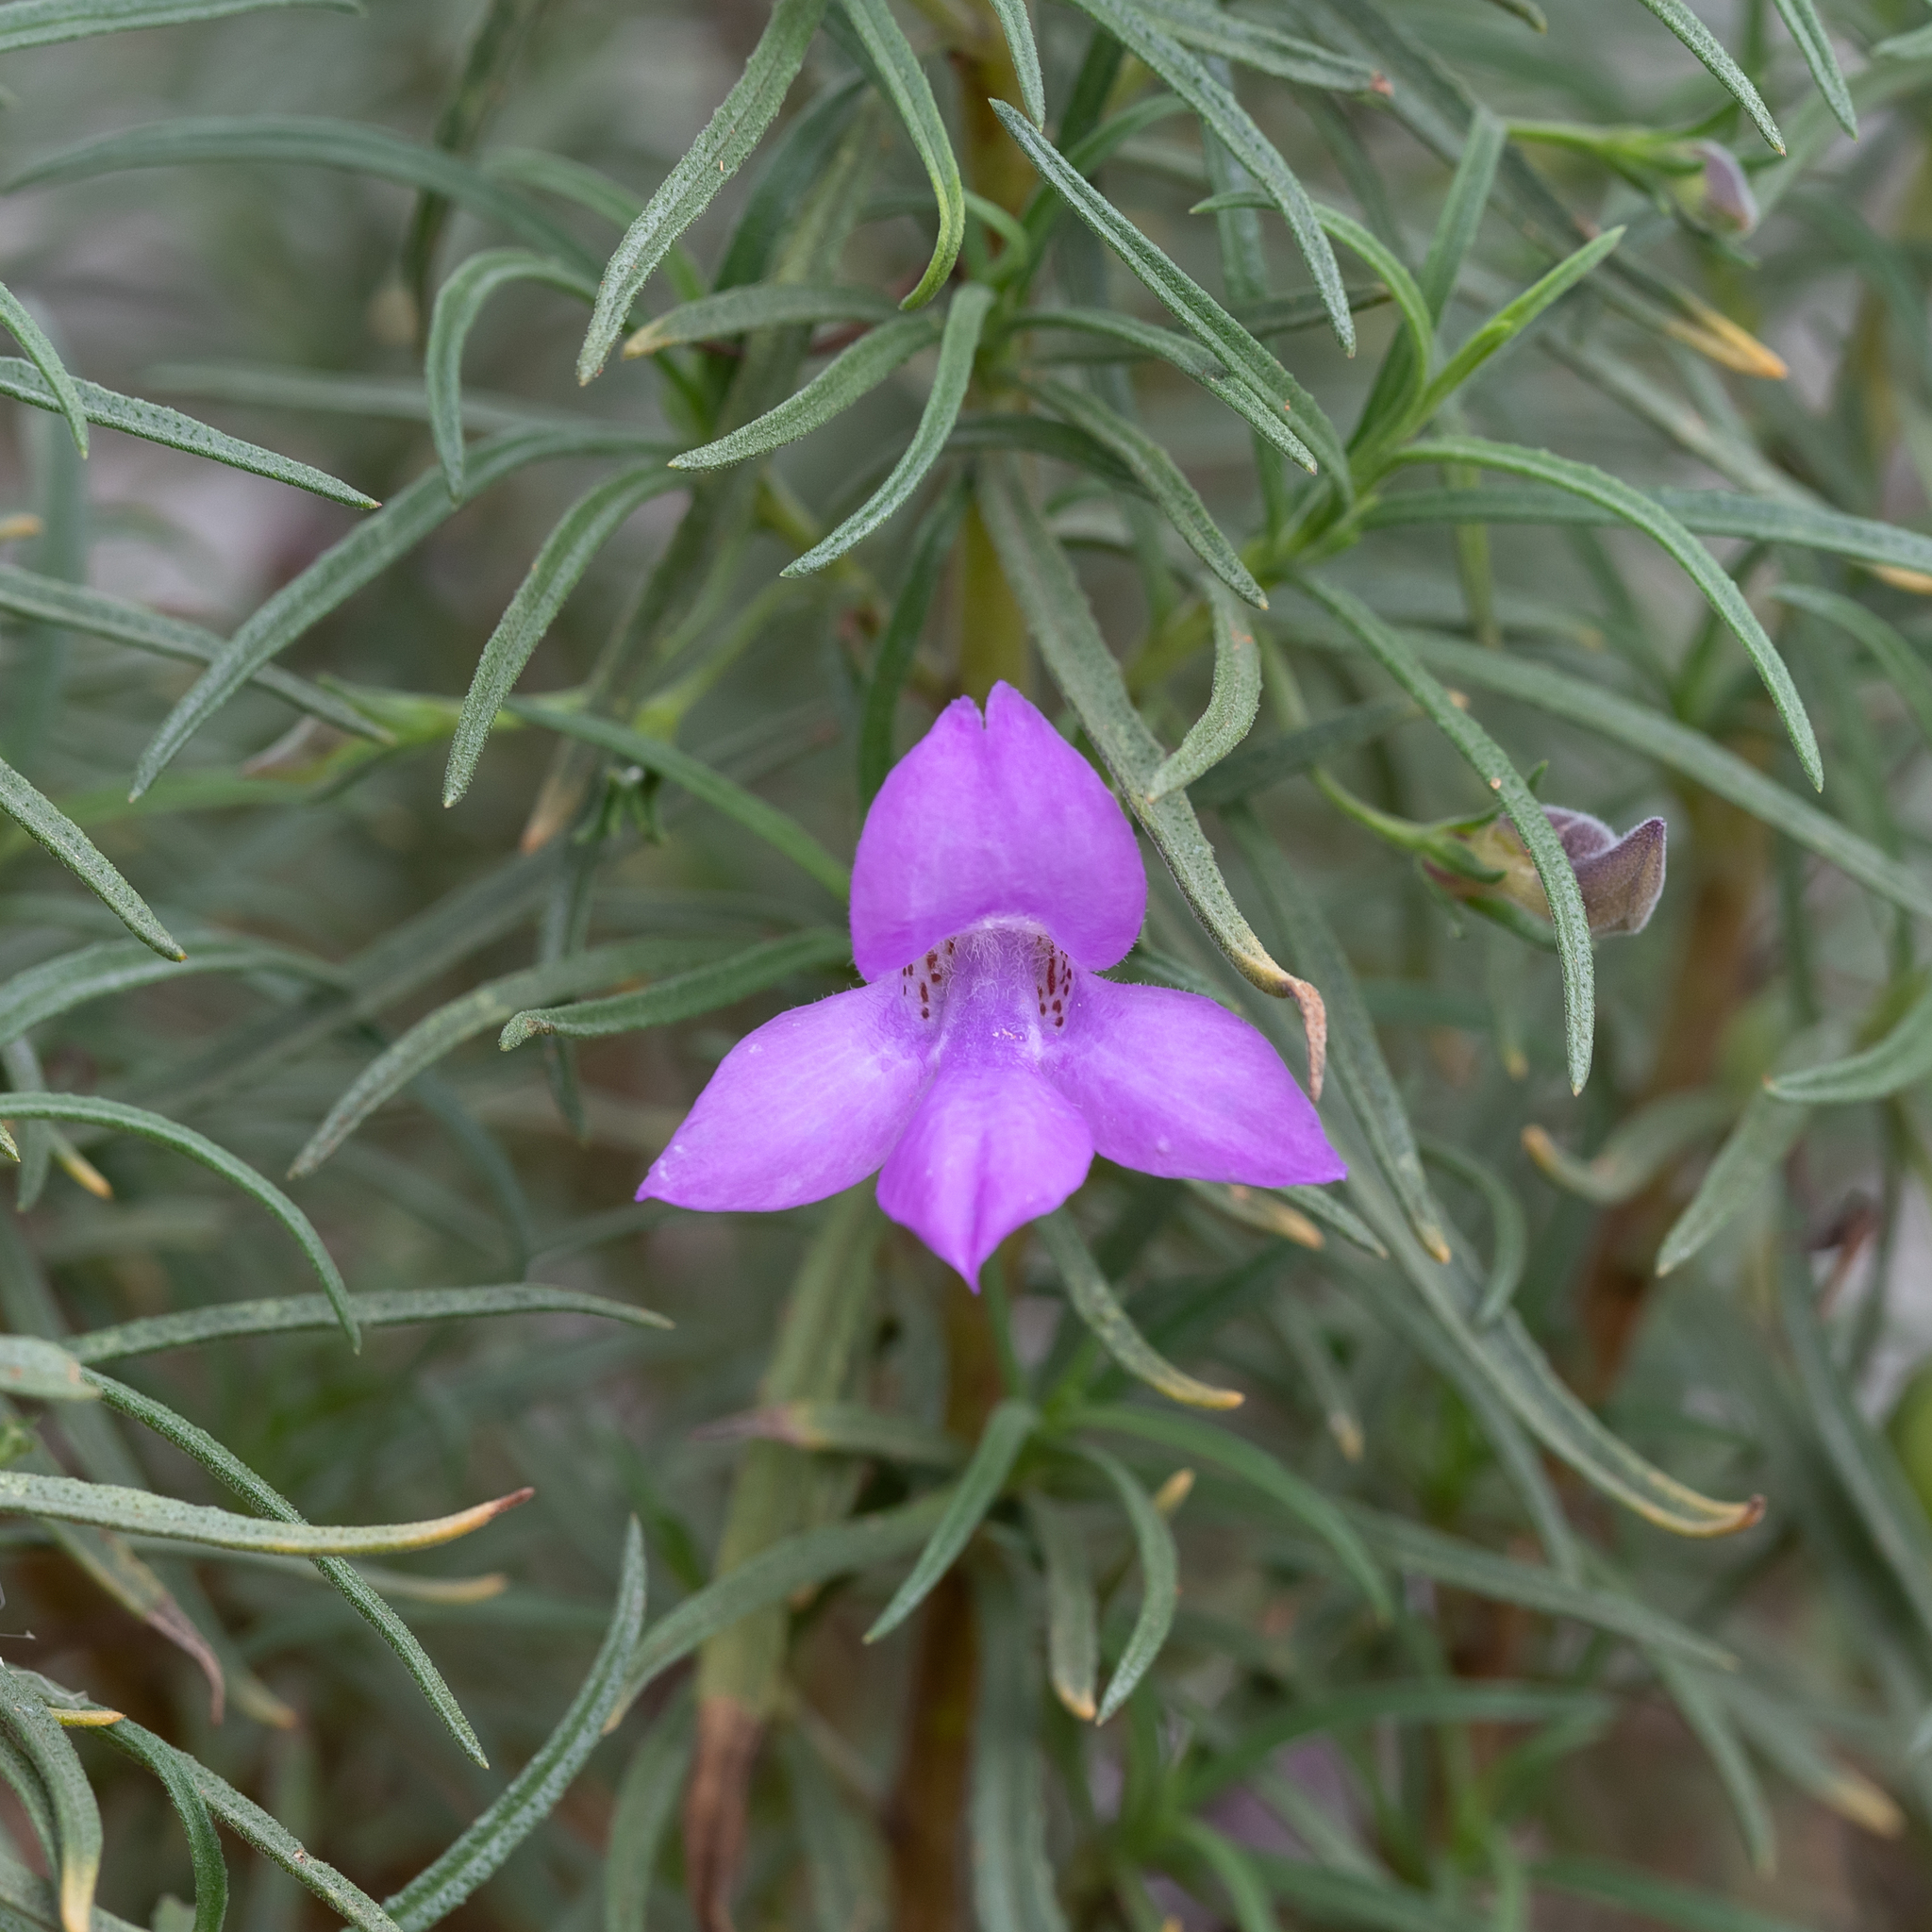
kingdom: Plantae
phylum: Tracheophyta
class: Magnoliopsida
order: Lamiales
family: Scrophulariaceae
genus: Eremophila
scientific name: Eremophila gilesii
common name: Desert fuchsia
